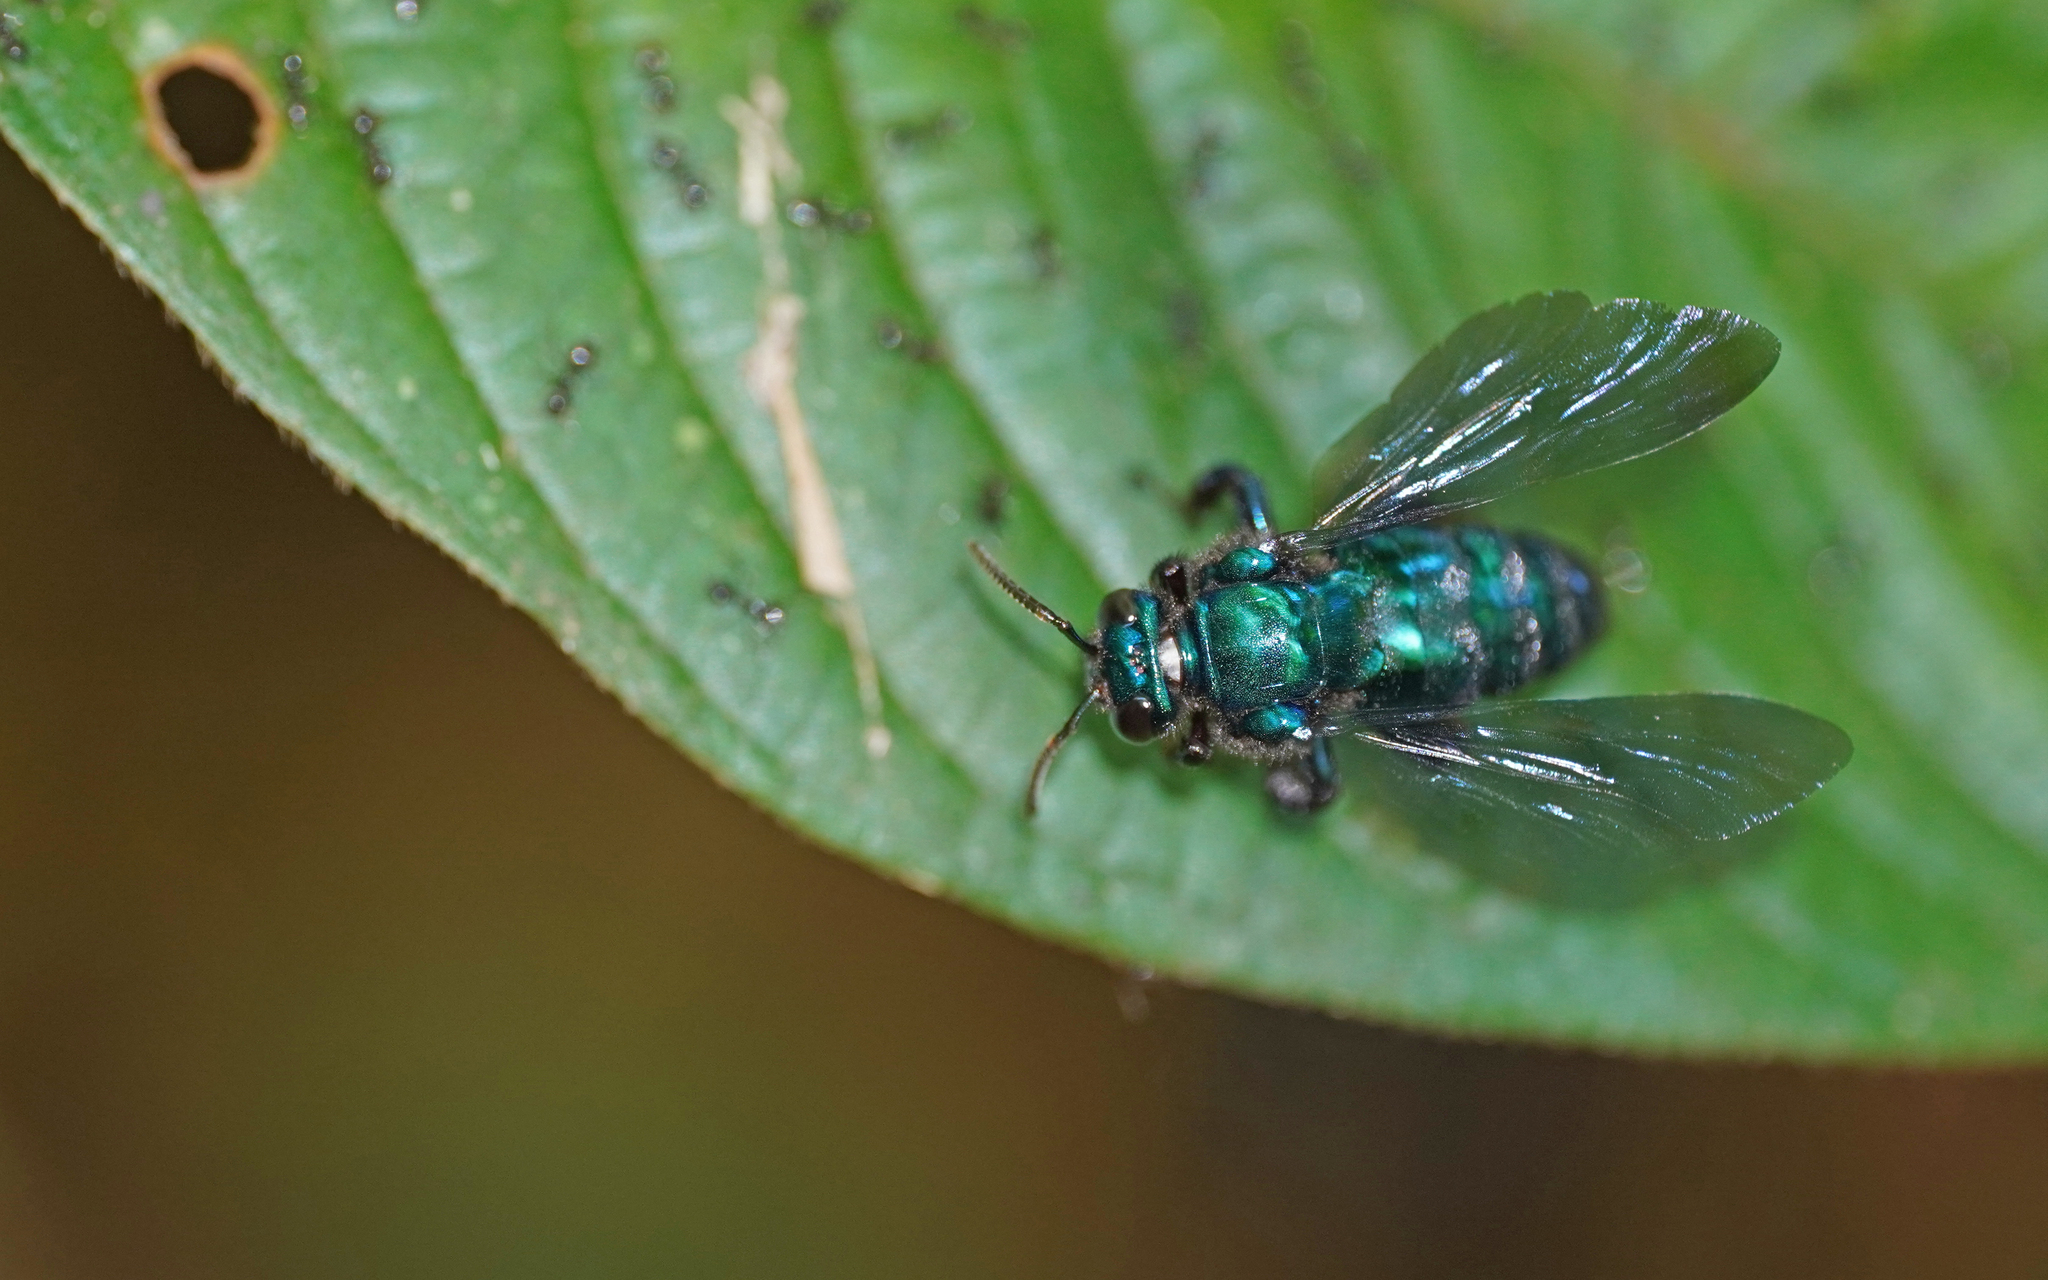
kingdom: Animalia
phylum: Arthropoda
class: Insecta
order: Hymenoptera
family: Apidae
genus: Aglae
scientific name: Aglae caerulea
